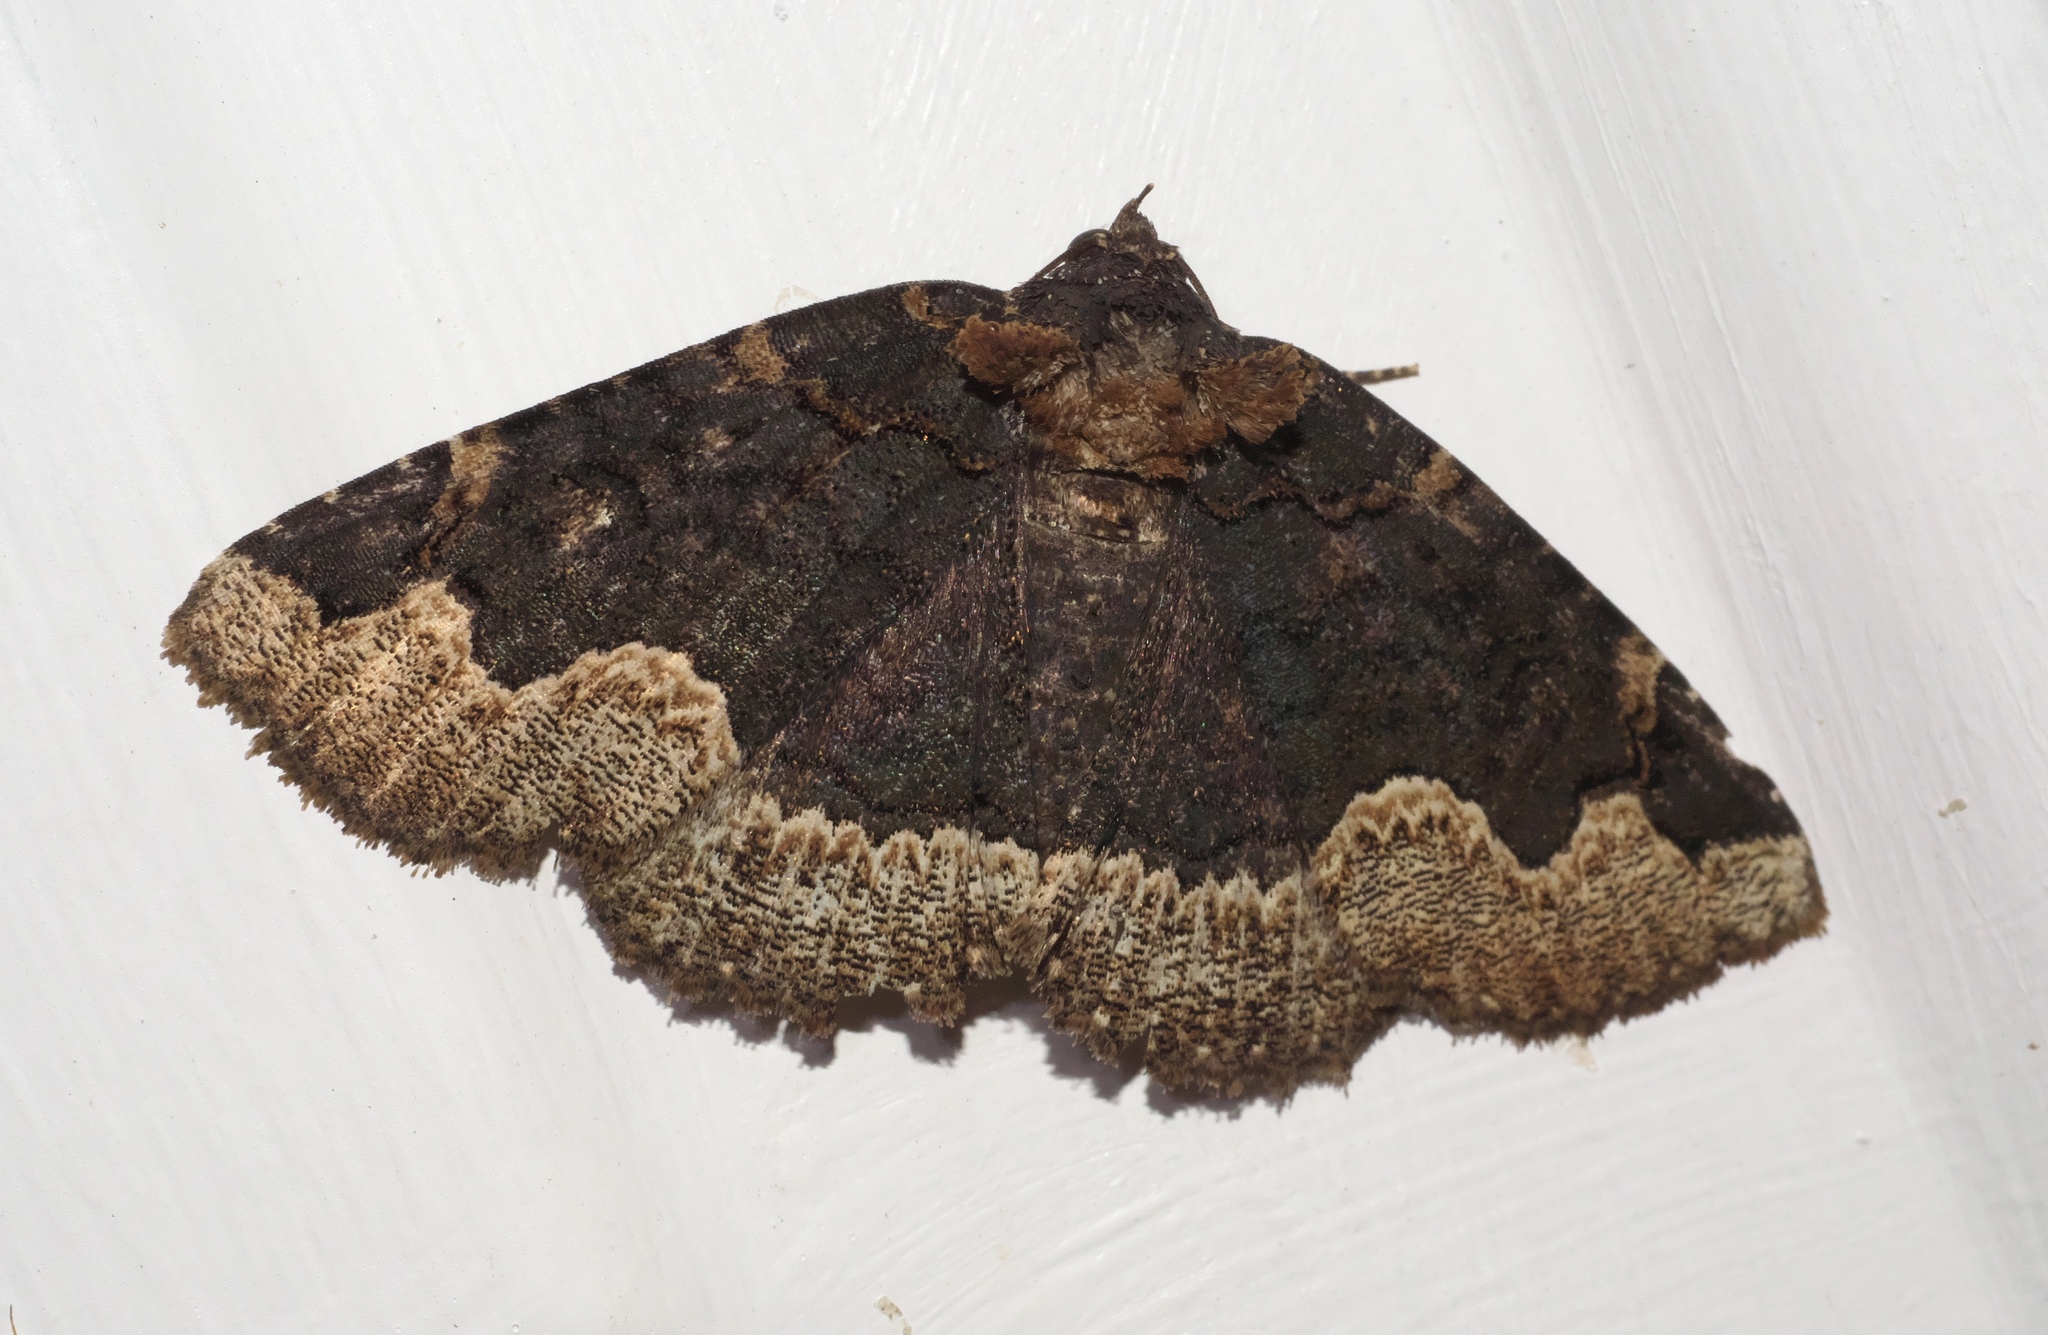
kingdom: Animalia
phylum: Arthropoda
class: Insecta
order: Lepidoptera
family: Erebidae
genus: Zale
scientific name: Zale horrida
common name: Horrid zale moth
